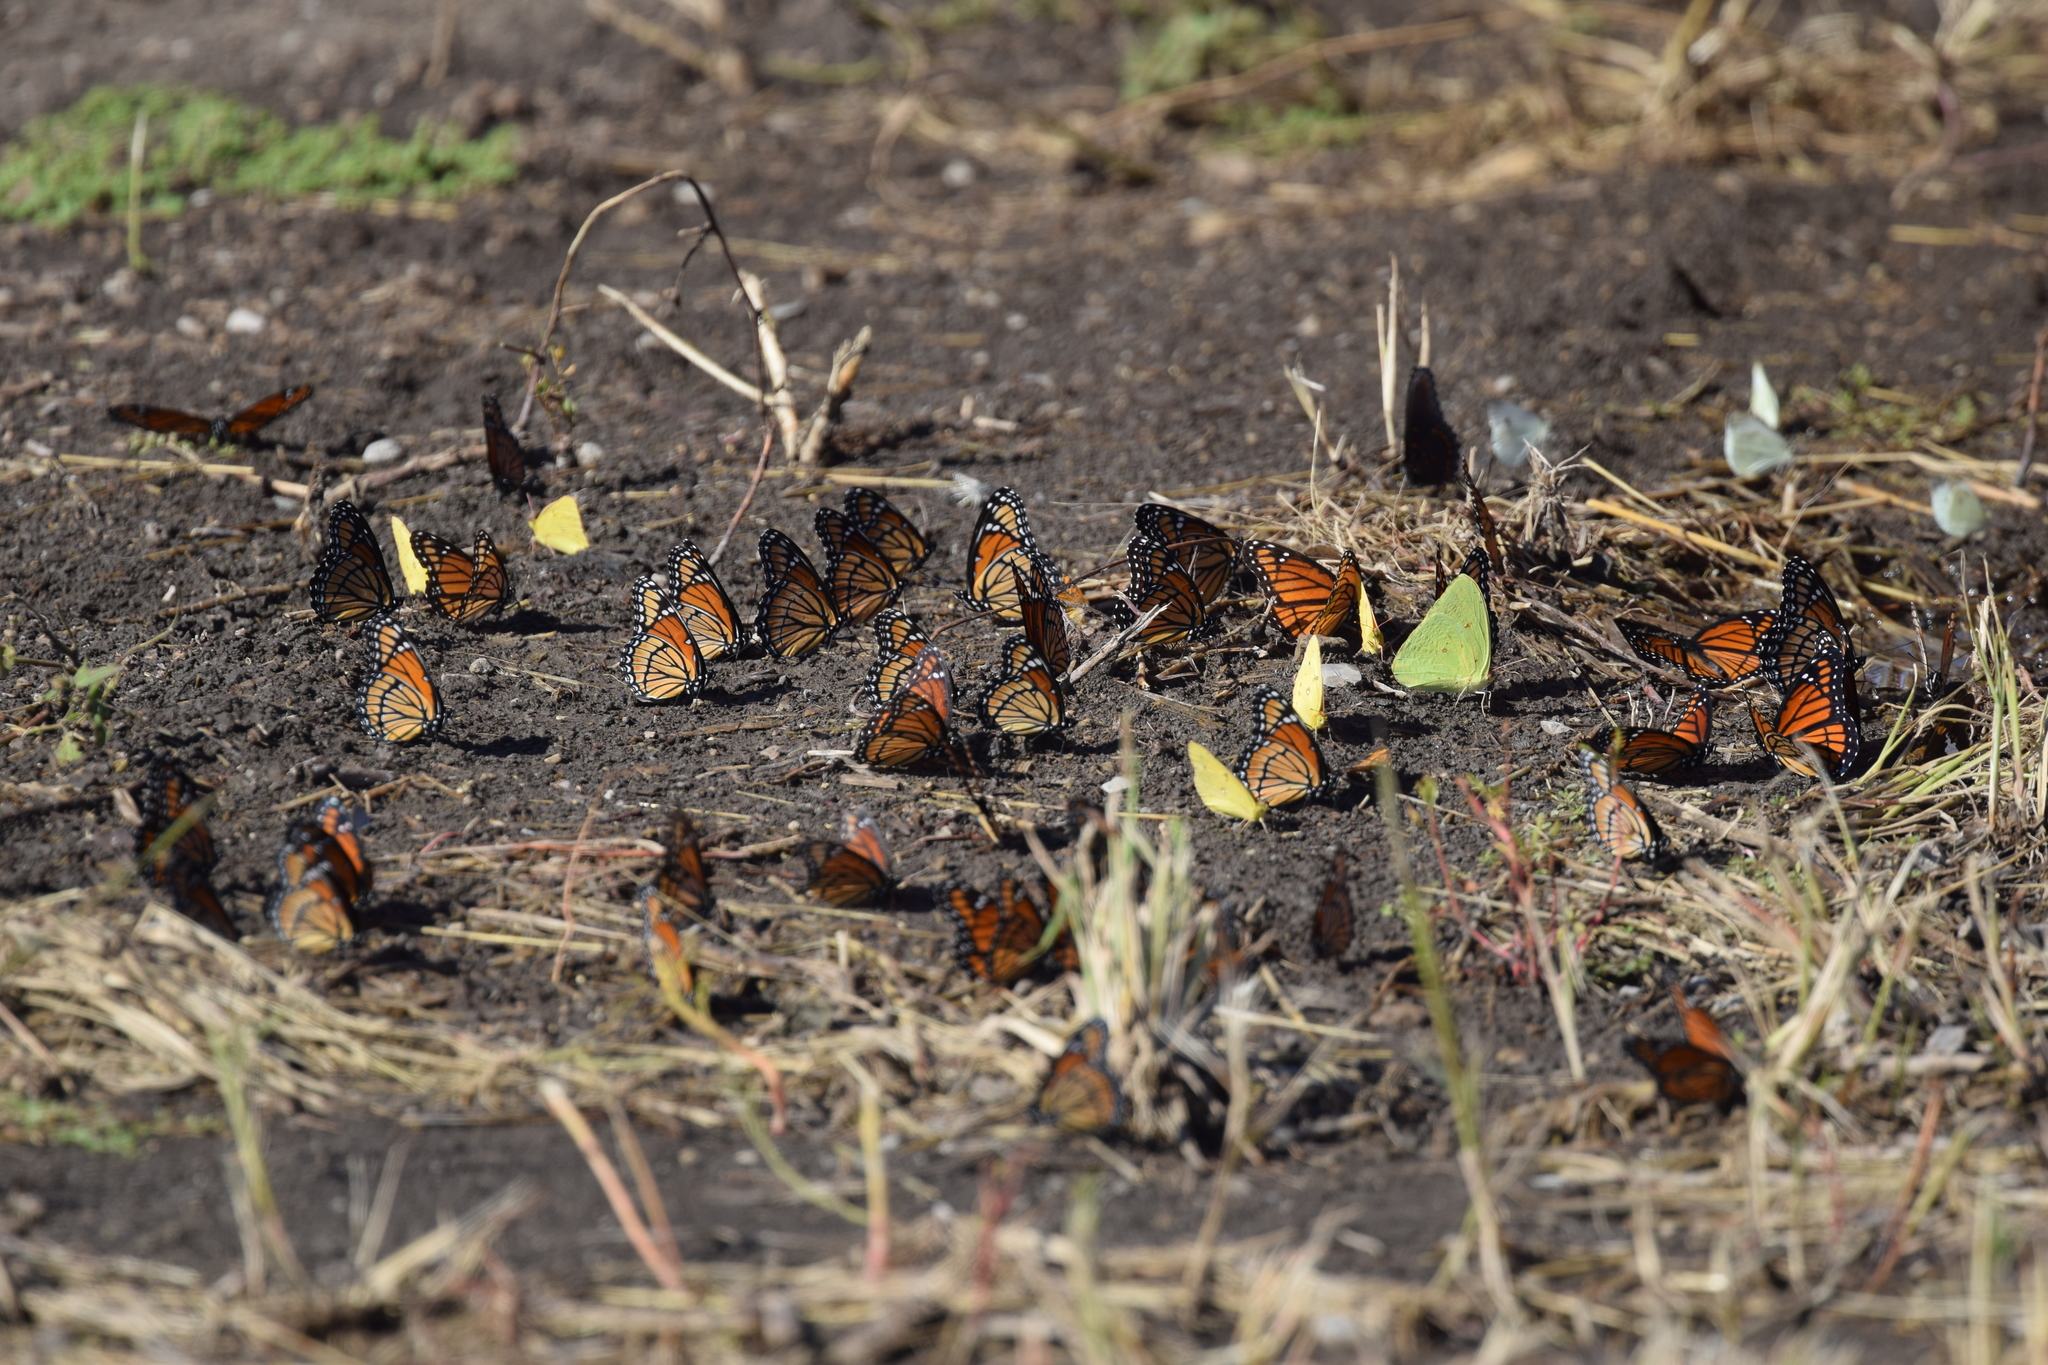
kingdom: Animalia
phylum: Arthropoda
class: Insecta
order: Lepidoptera
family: Nymphalidae
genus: Limenitis
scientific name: Limenitis archippus
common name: Viceroy
